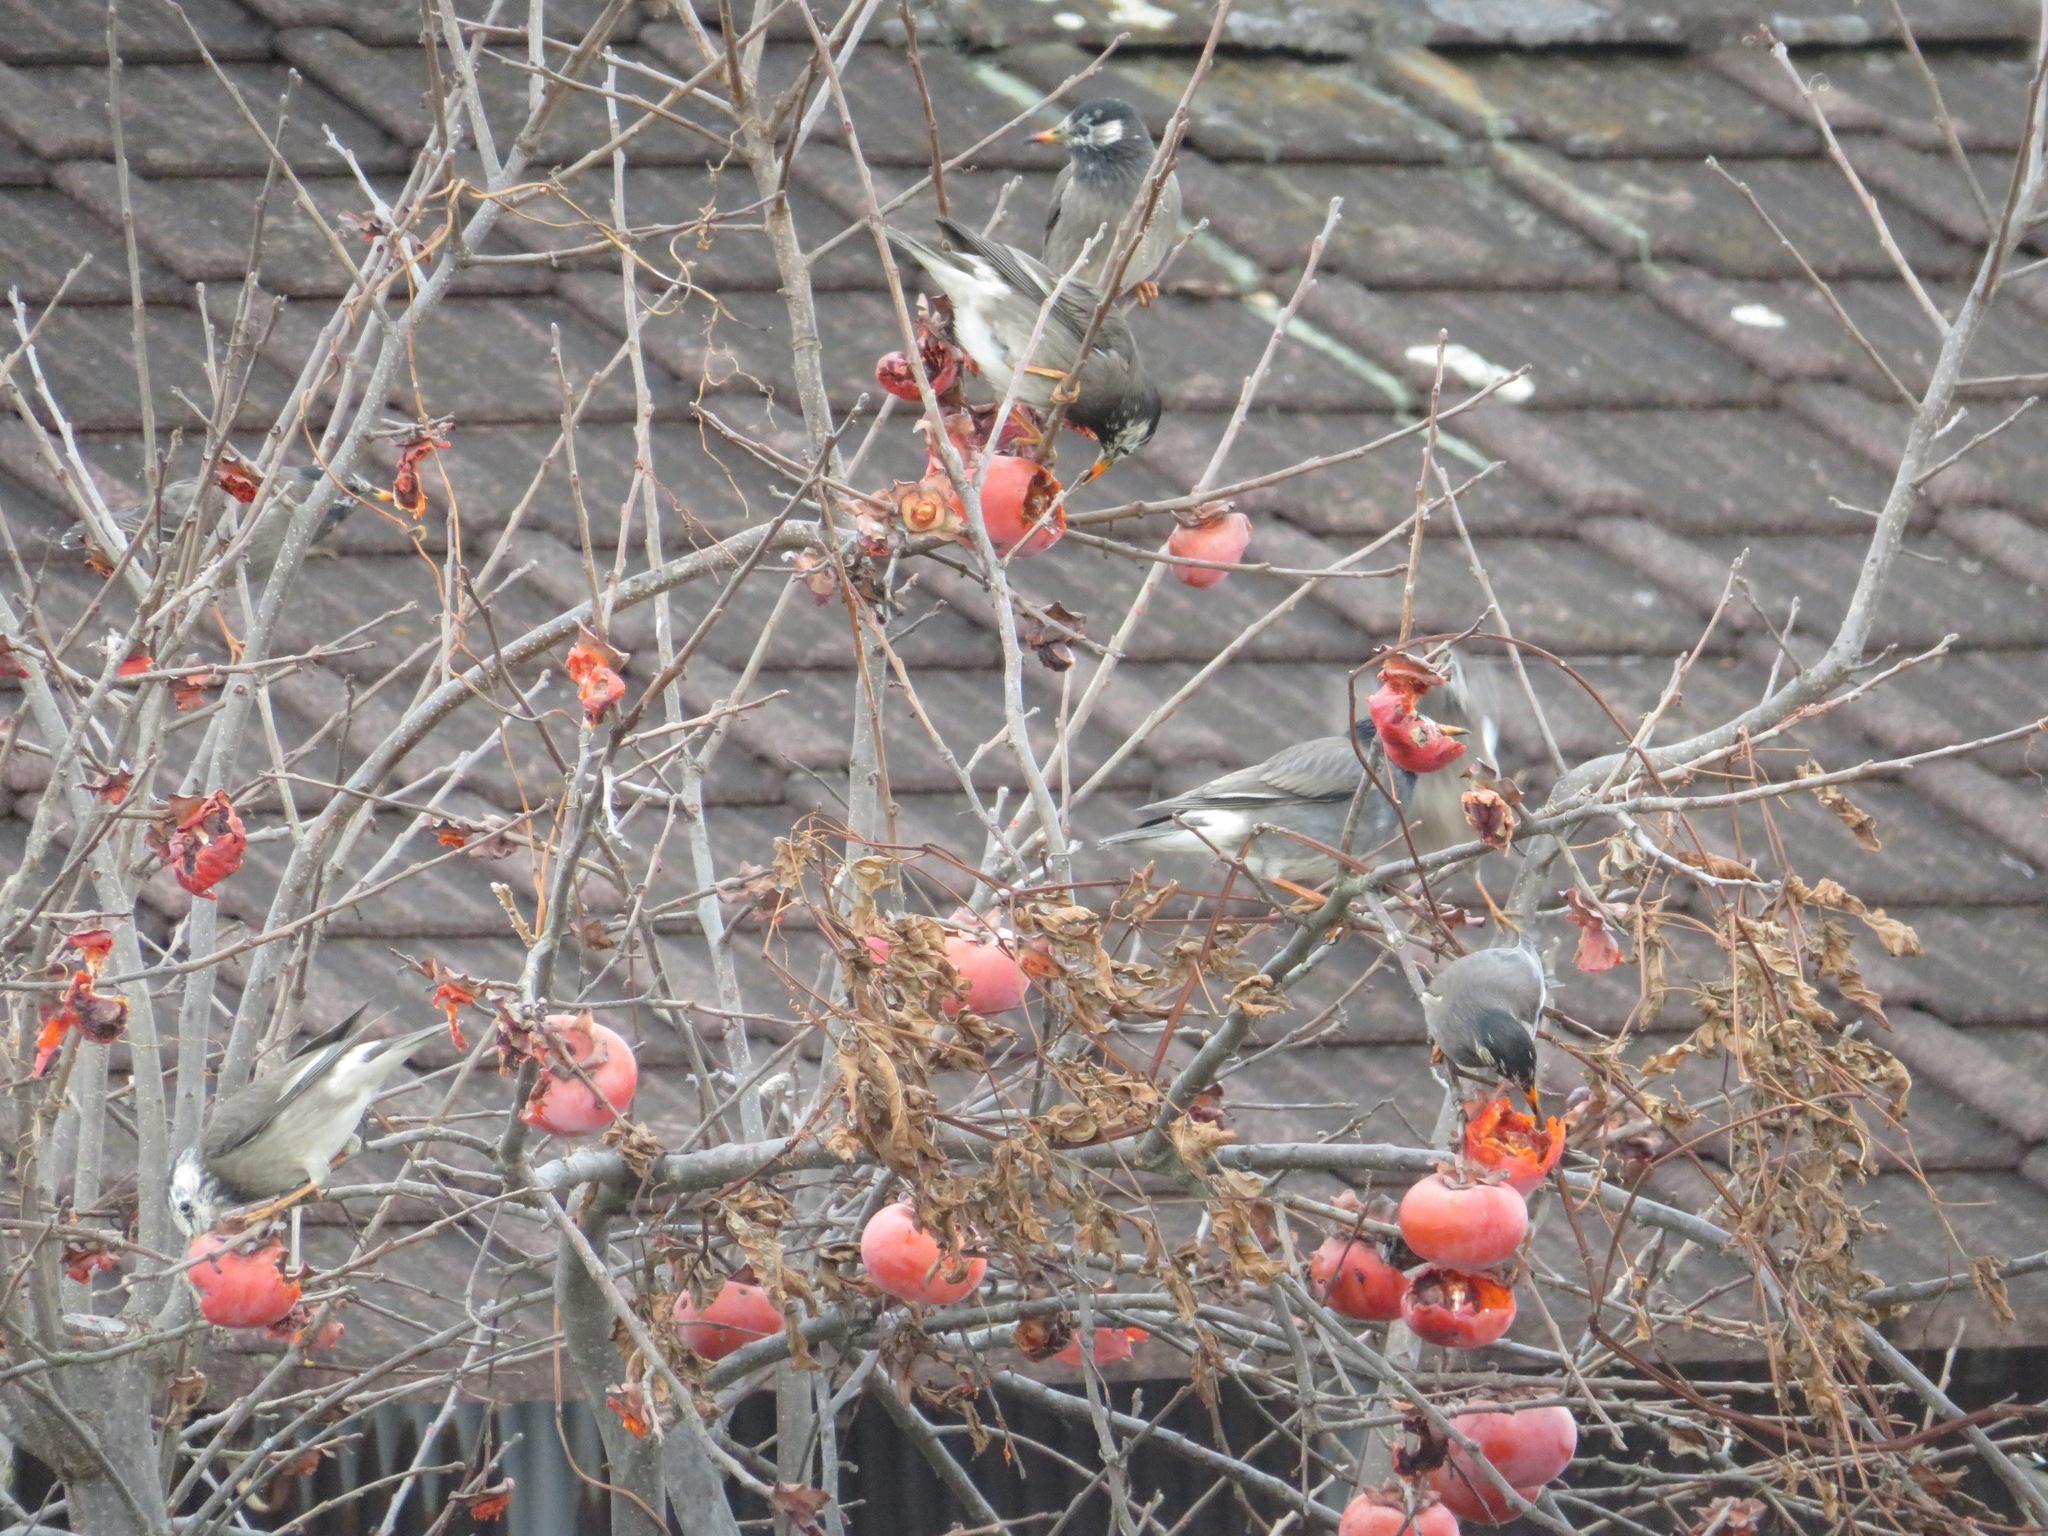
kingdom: Animalia
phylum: Chordata
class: Aves
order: Passeriformes
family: Sturnidae
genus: Spodiopsar
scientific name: Spodiopsar cineraceus
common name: White-cheeked starling
